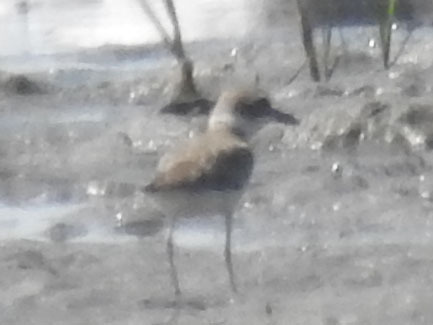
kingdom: Animalia
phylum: Chordata
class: Aves
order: Charadriiformes
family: Charadriidae
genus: Anarhynchus
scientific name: Anarhynchus
